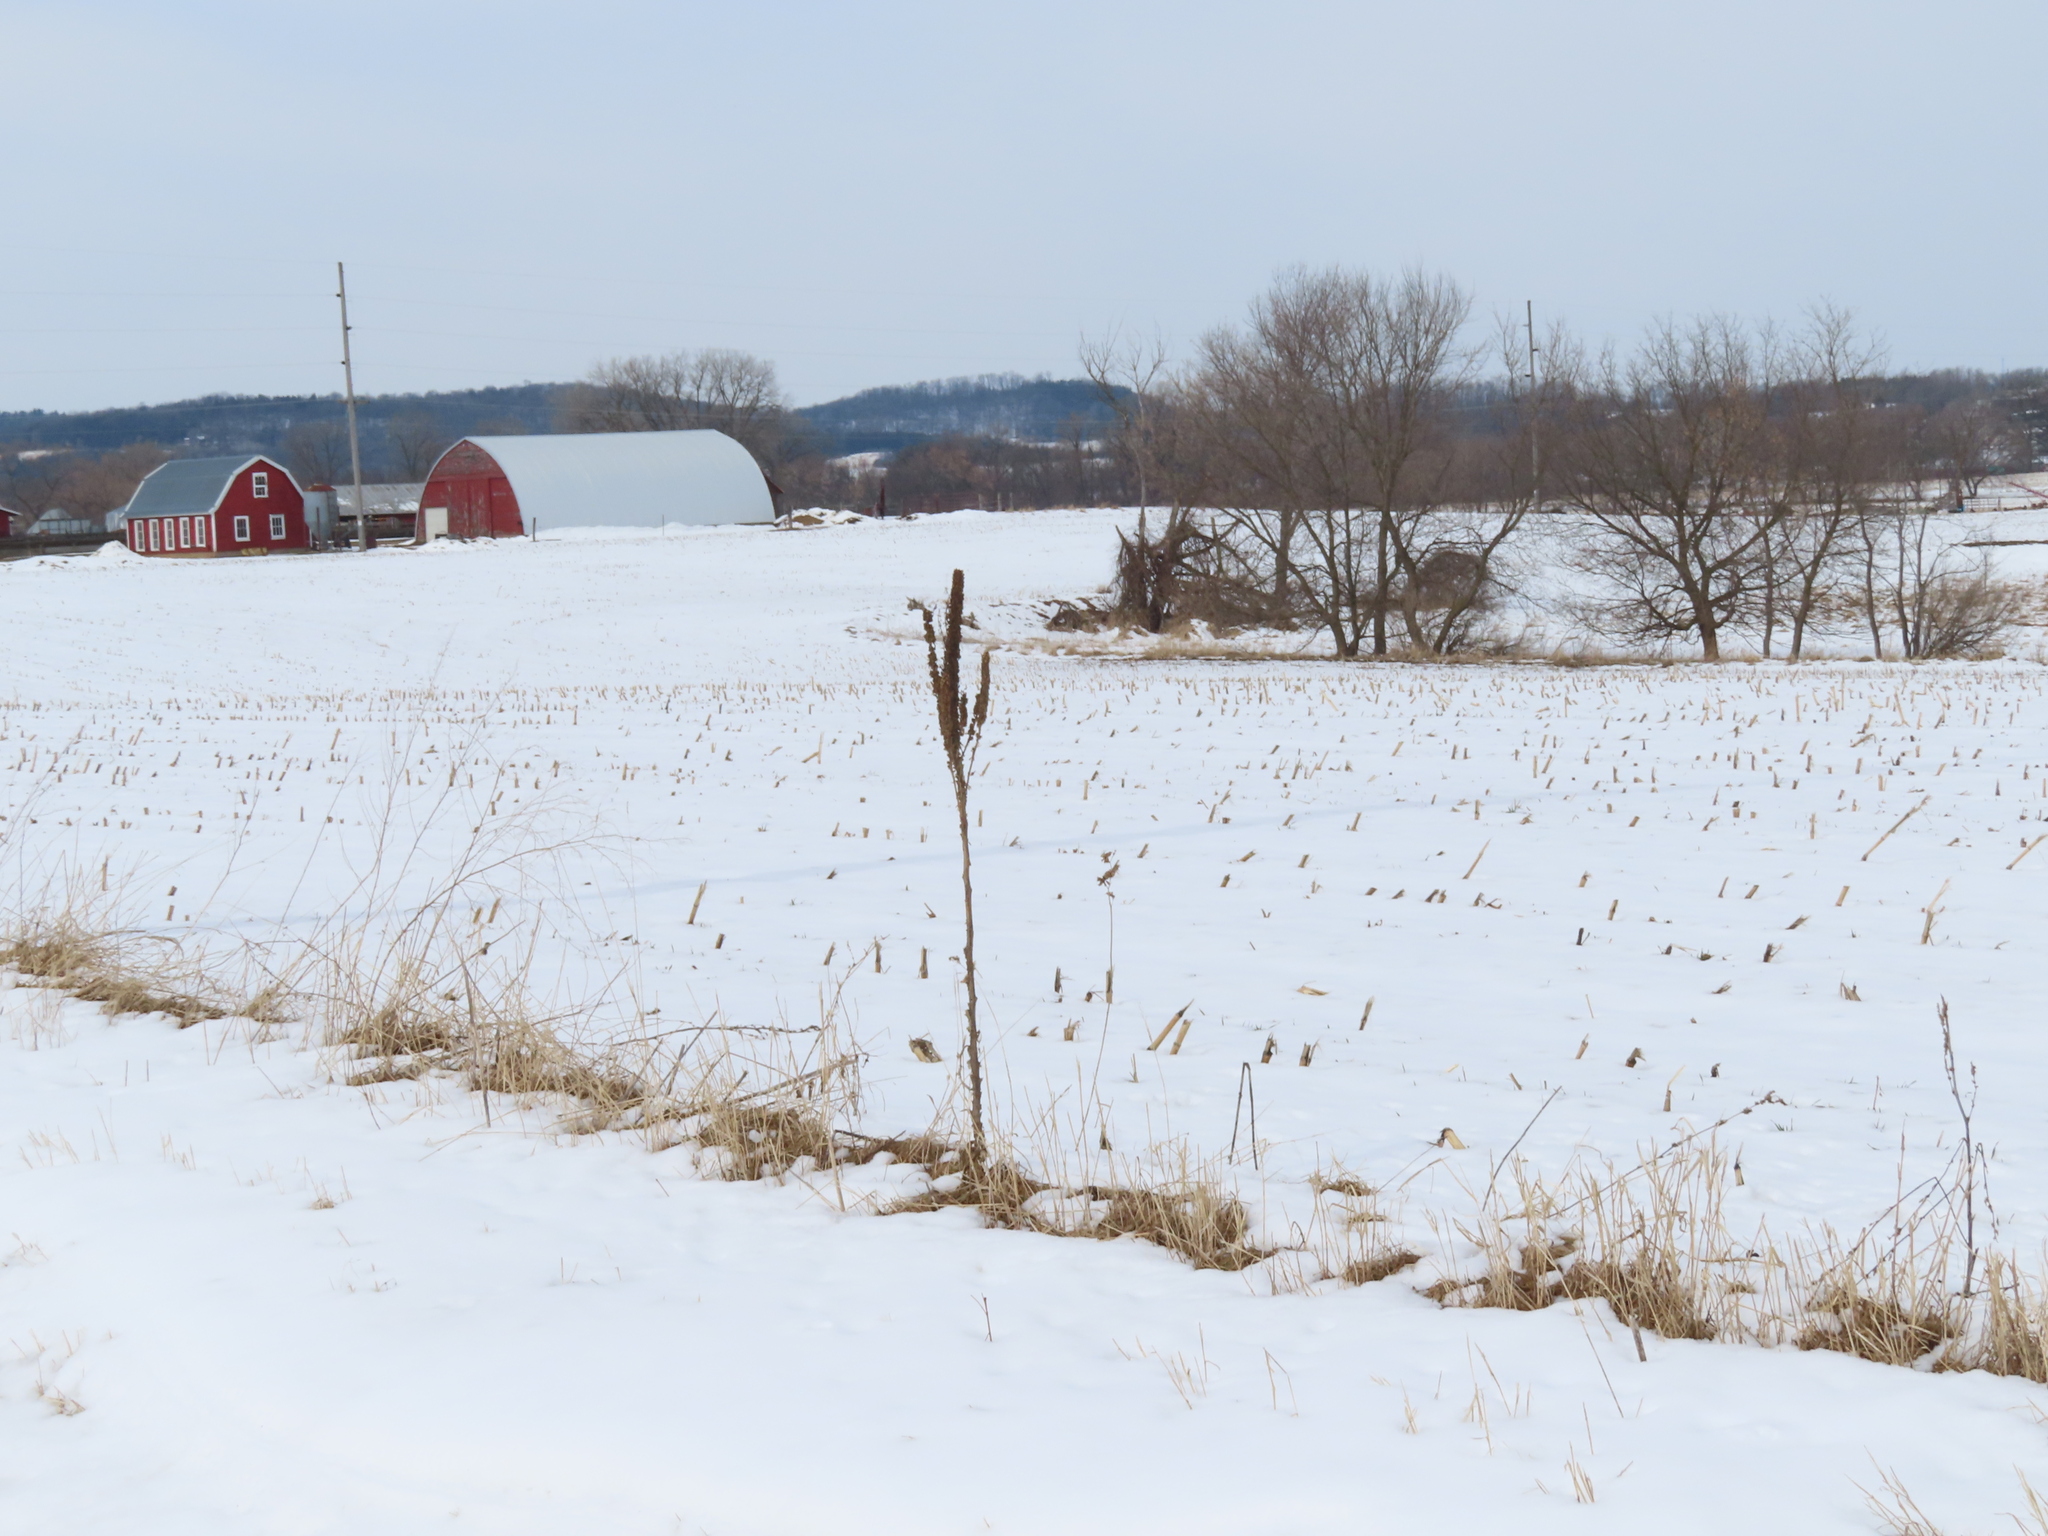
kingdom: Plantae
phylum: Tracheophyta
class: Magnoliopsida
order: Lamiales
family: Scrophulariaceae
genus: Verbascum
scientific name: Verbascum thapsus
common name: Common mullein
